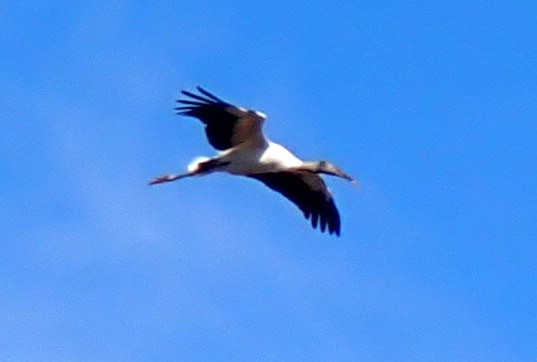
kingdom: Animalia
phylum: Chordata
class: Aves
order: Ciconiiformes
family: Ciconiidae
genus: Mycteria
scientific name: Mycteria americana
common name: Wood stork
